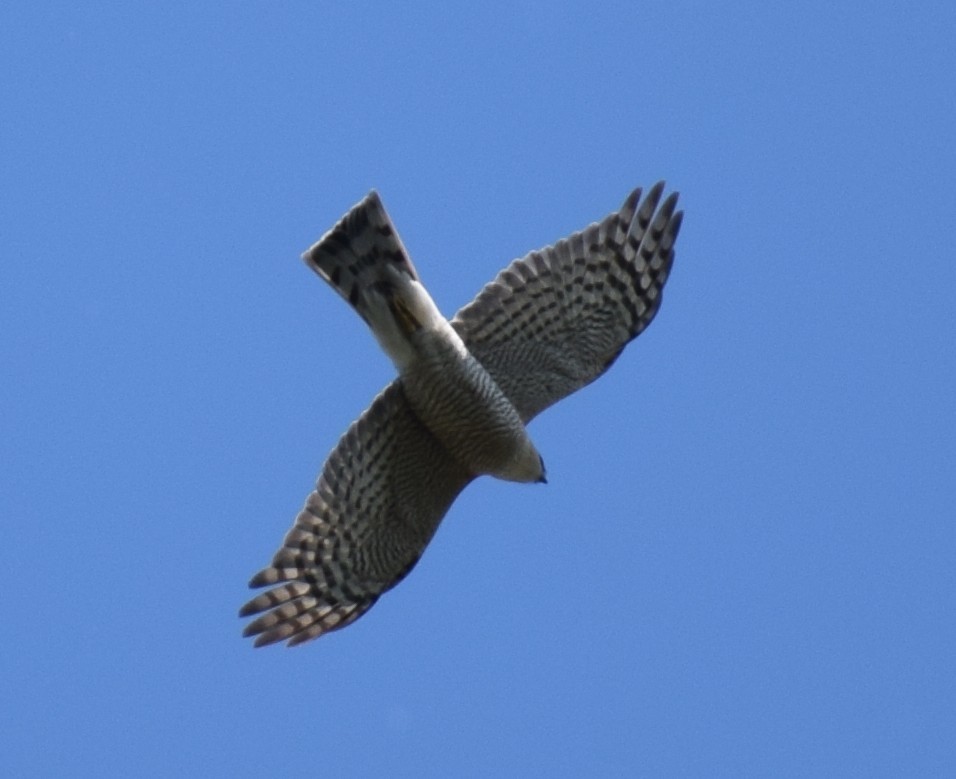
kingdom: Animalia
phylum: Chordata
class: Aves
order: Accipitriformes
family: Accipitridae
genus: Accipiter
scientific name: Accipiter nisus
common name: Eurasian sparrowhawk
